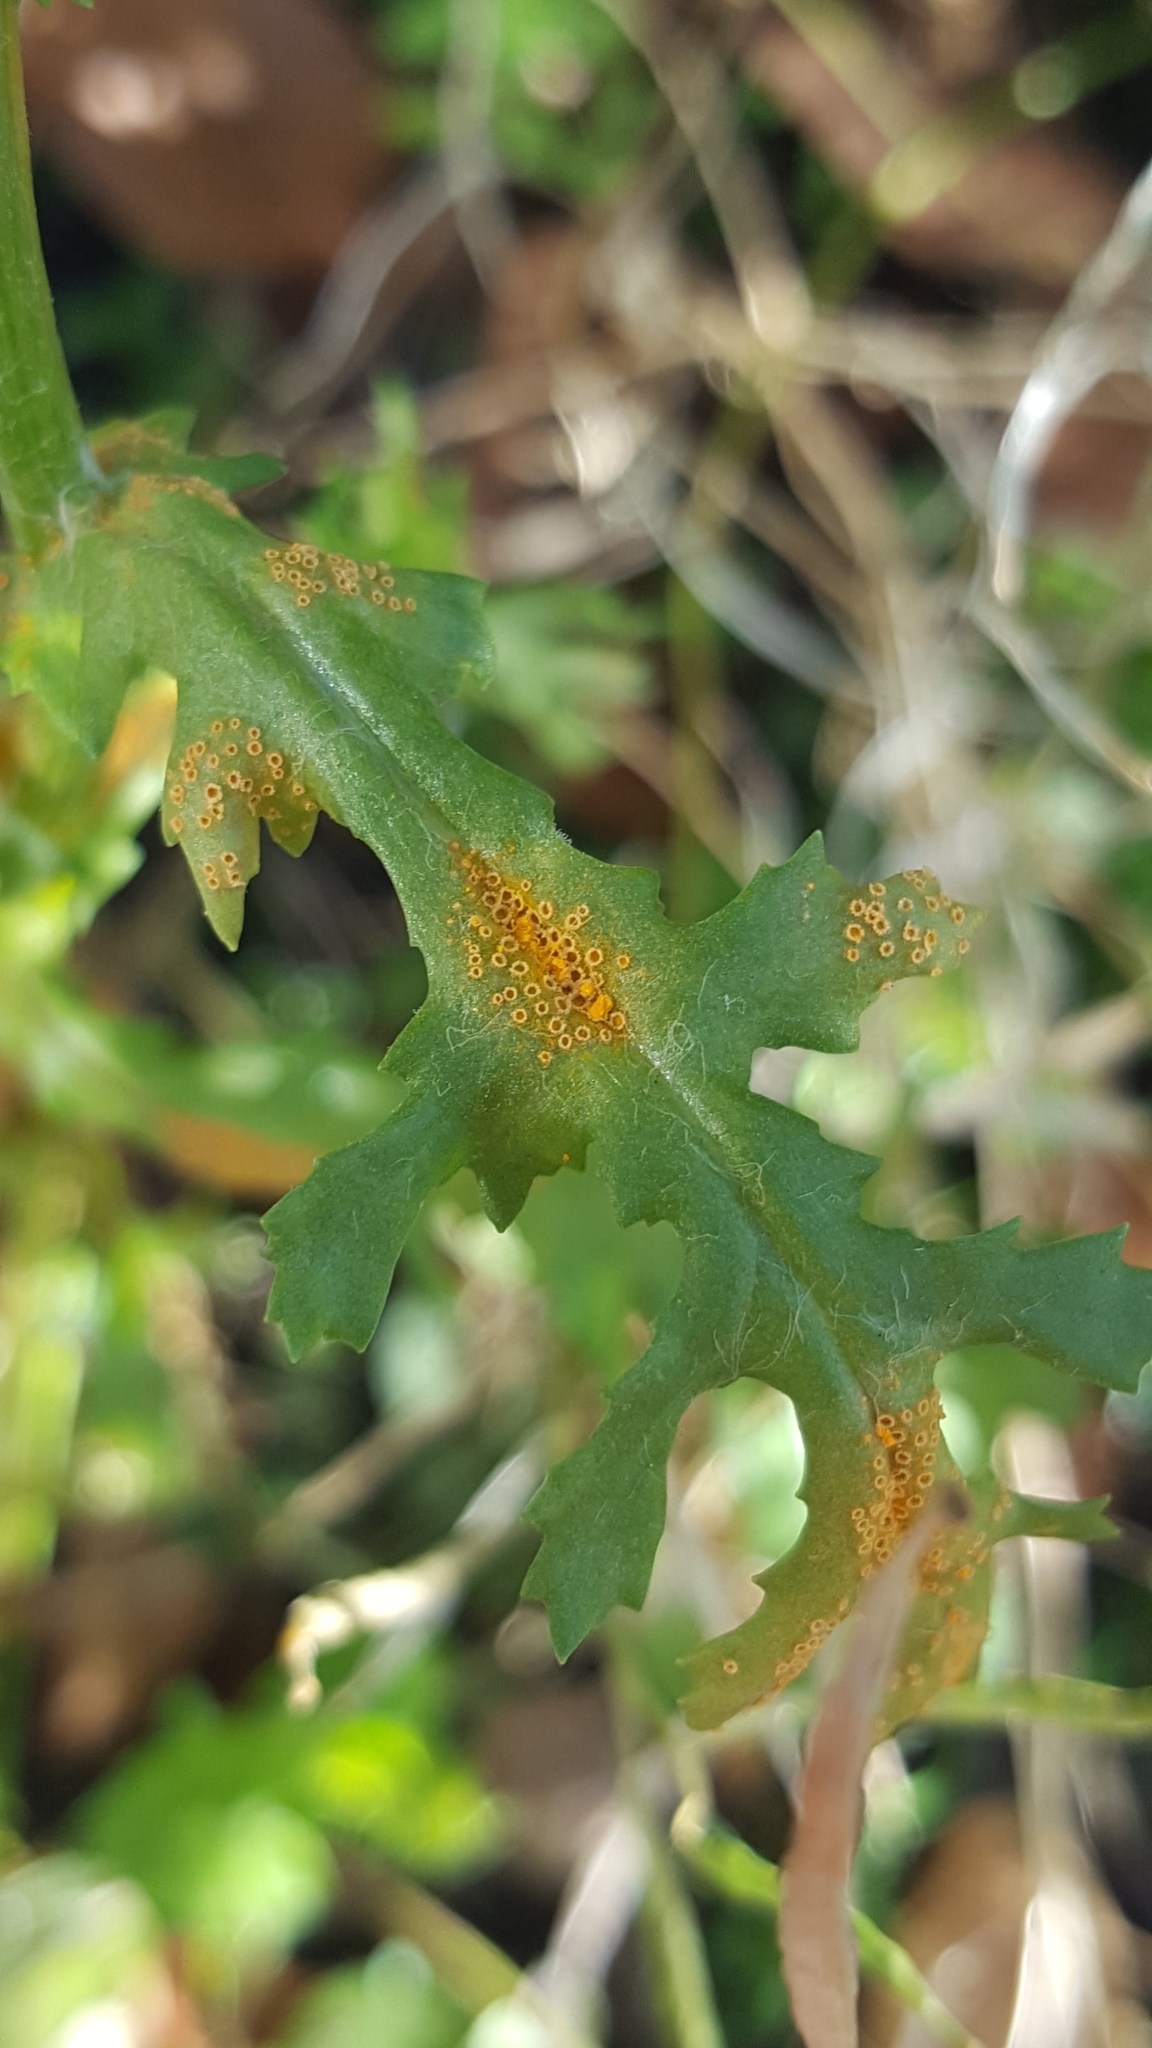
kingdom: Fungi
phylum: Basidiomycota
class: Pucciniomycetes
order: Pucciniales
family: Pucciniaceae
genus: Puccinia
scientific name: Puccinia lagenophorae
